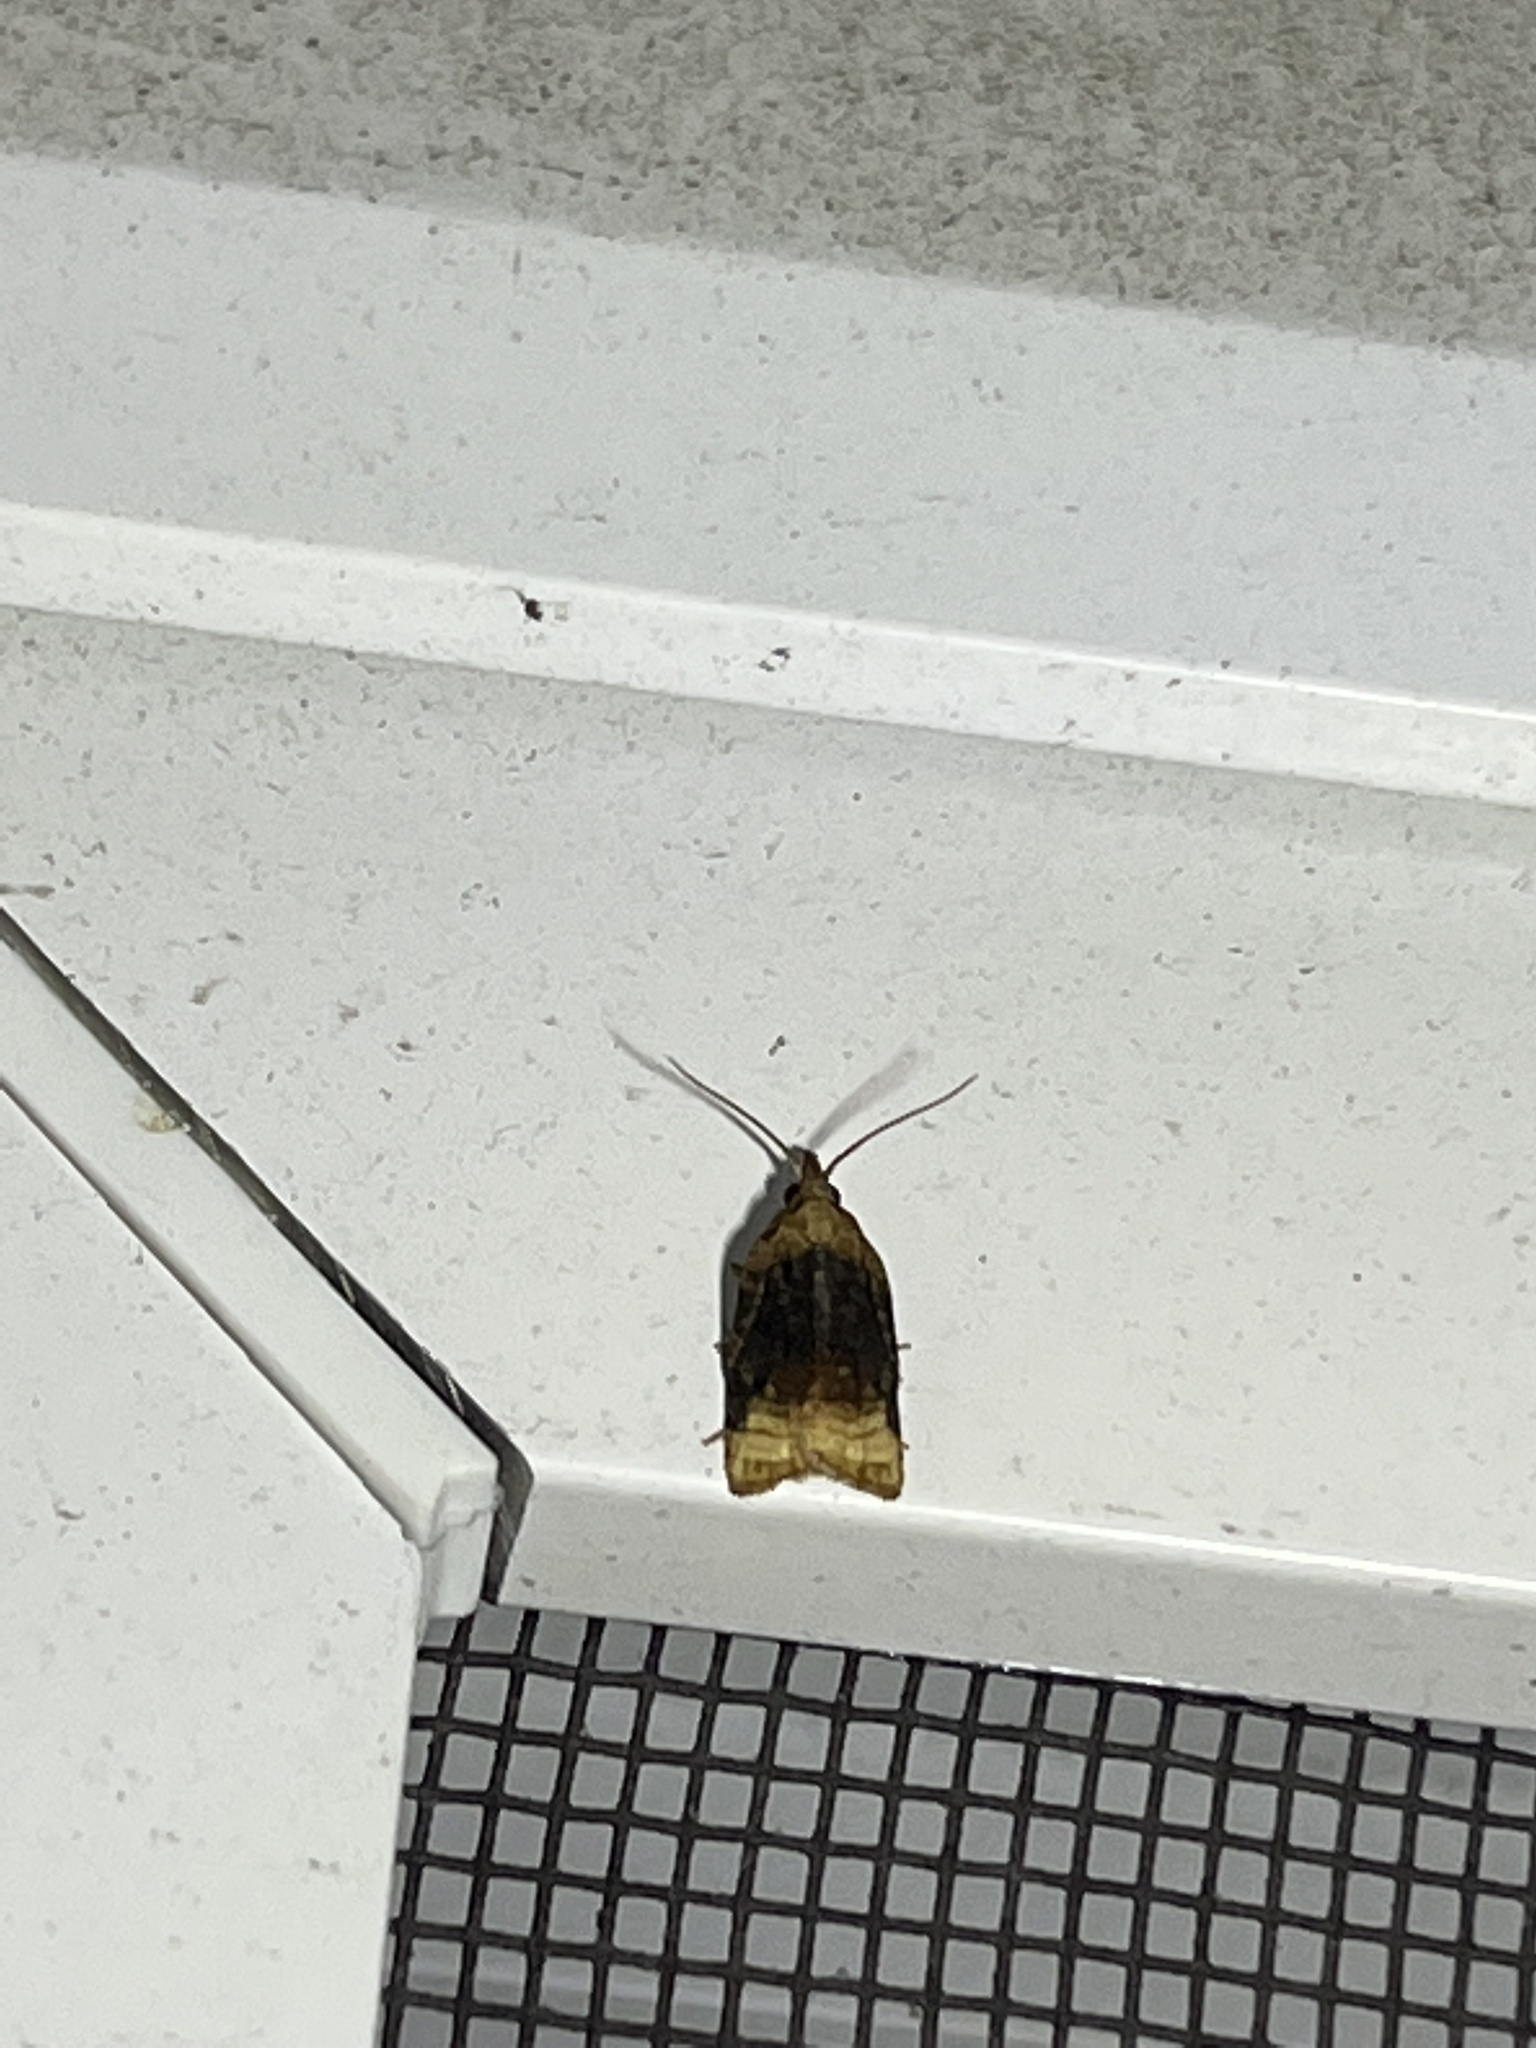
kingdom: Animalia
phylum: Arthropoda
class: Insecta
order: Lepidoptera
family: Tortricidae
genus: Platynota
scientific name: Platynota flavedana
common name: Black-shaded platynota moth
